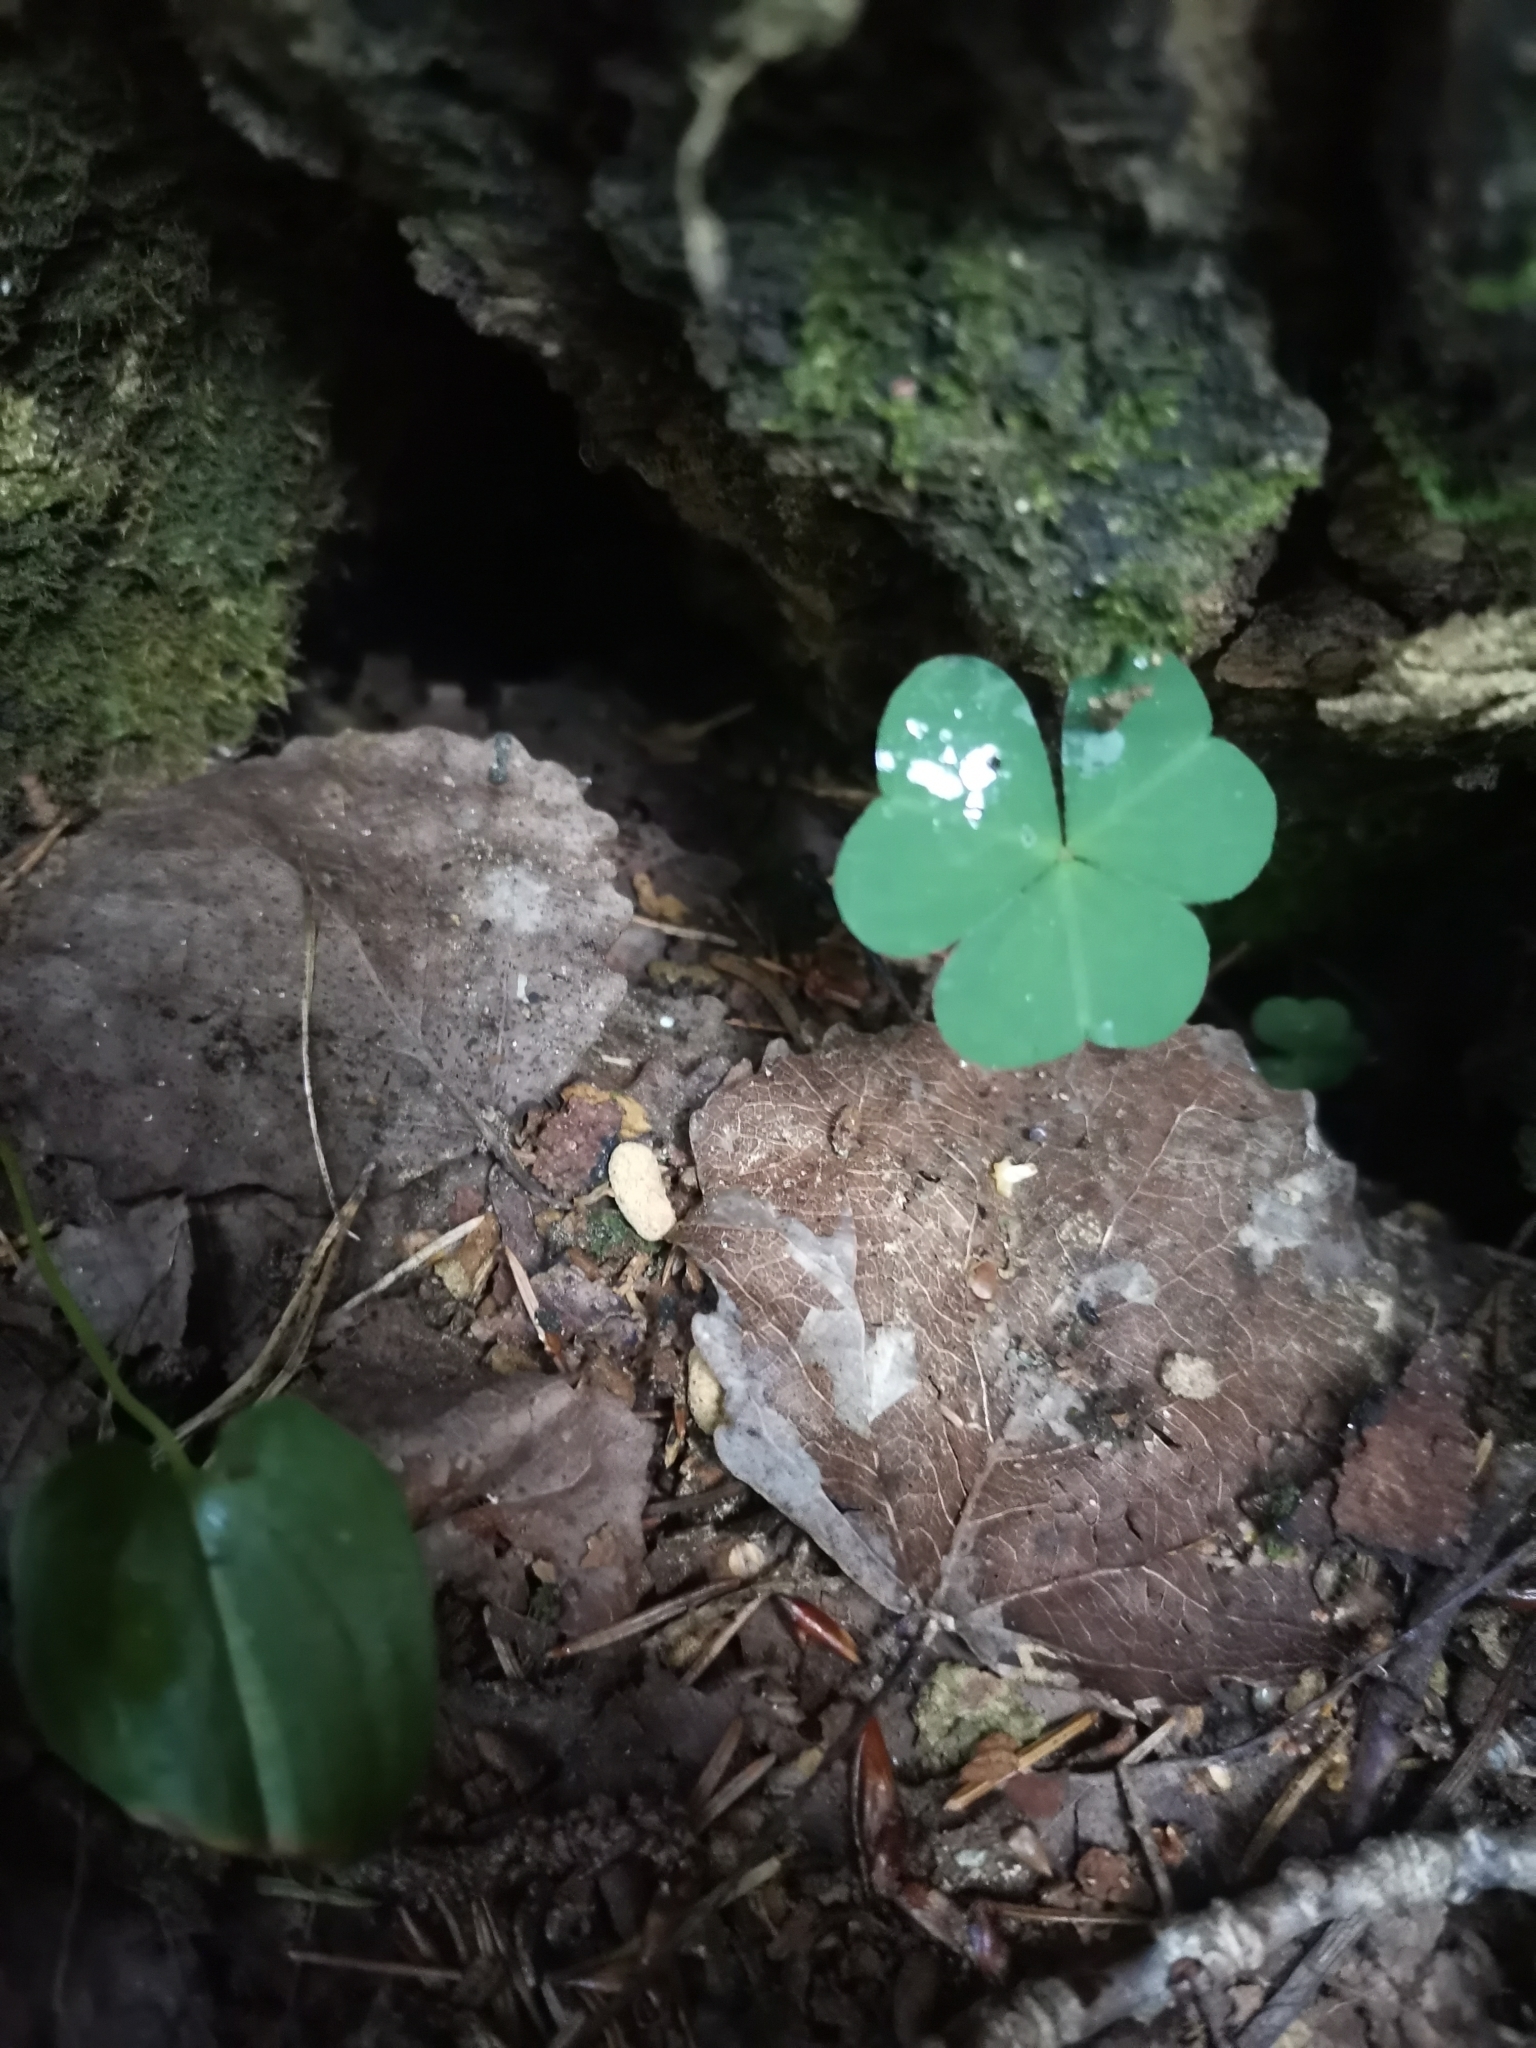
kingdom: Animalia
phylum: Chordata
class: Mammalia
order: Rodentia
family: Sciuridae
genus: Pteromys
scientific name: Pteromys volans
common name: Siberian flying squirrel
